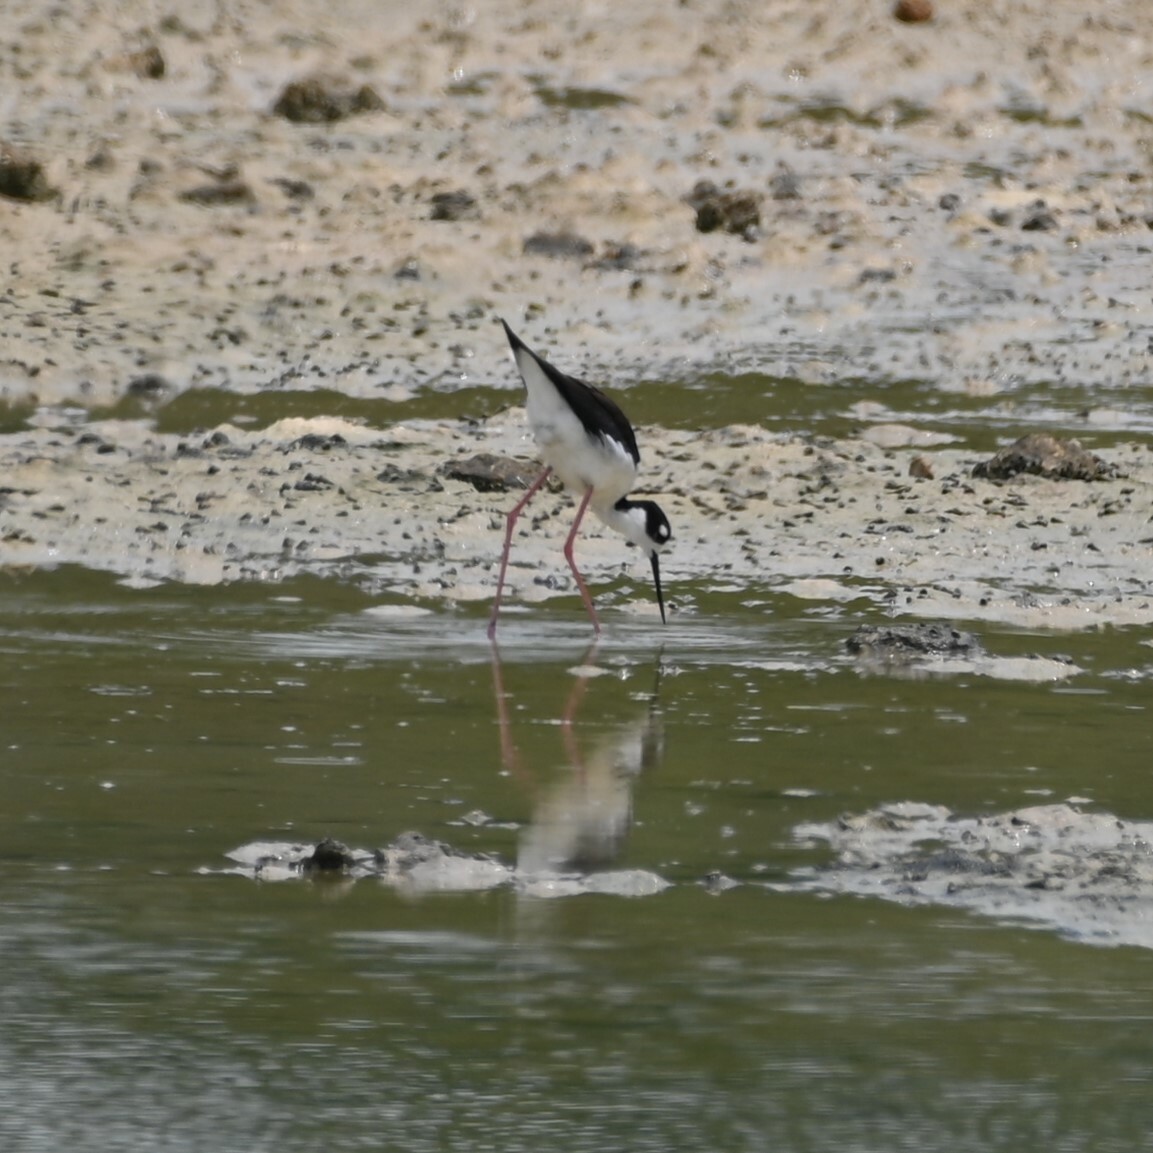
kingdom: Animalia
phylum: Chordata
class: Aves
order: Charadriiformes
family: Recurvirostridae
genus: Himantopus
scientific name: Himantopus mexicanus
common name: Black-necked stilt
